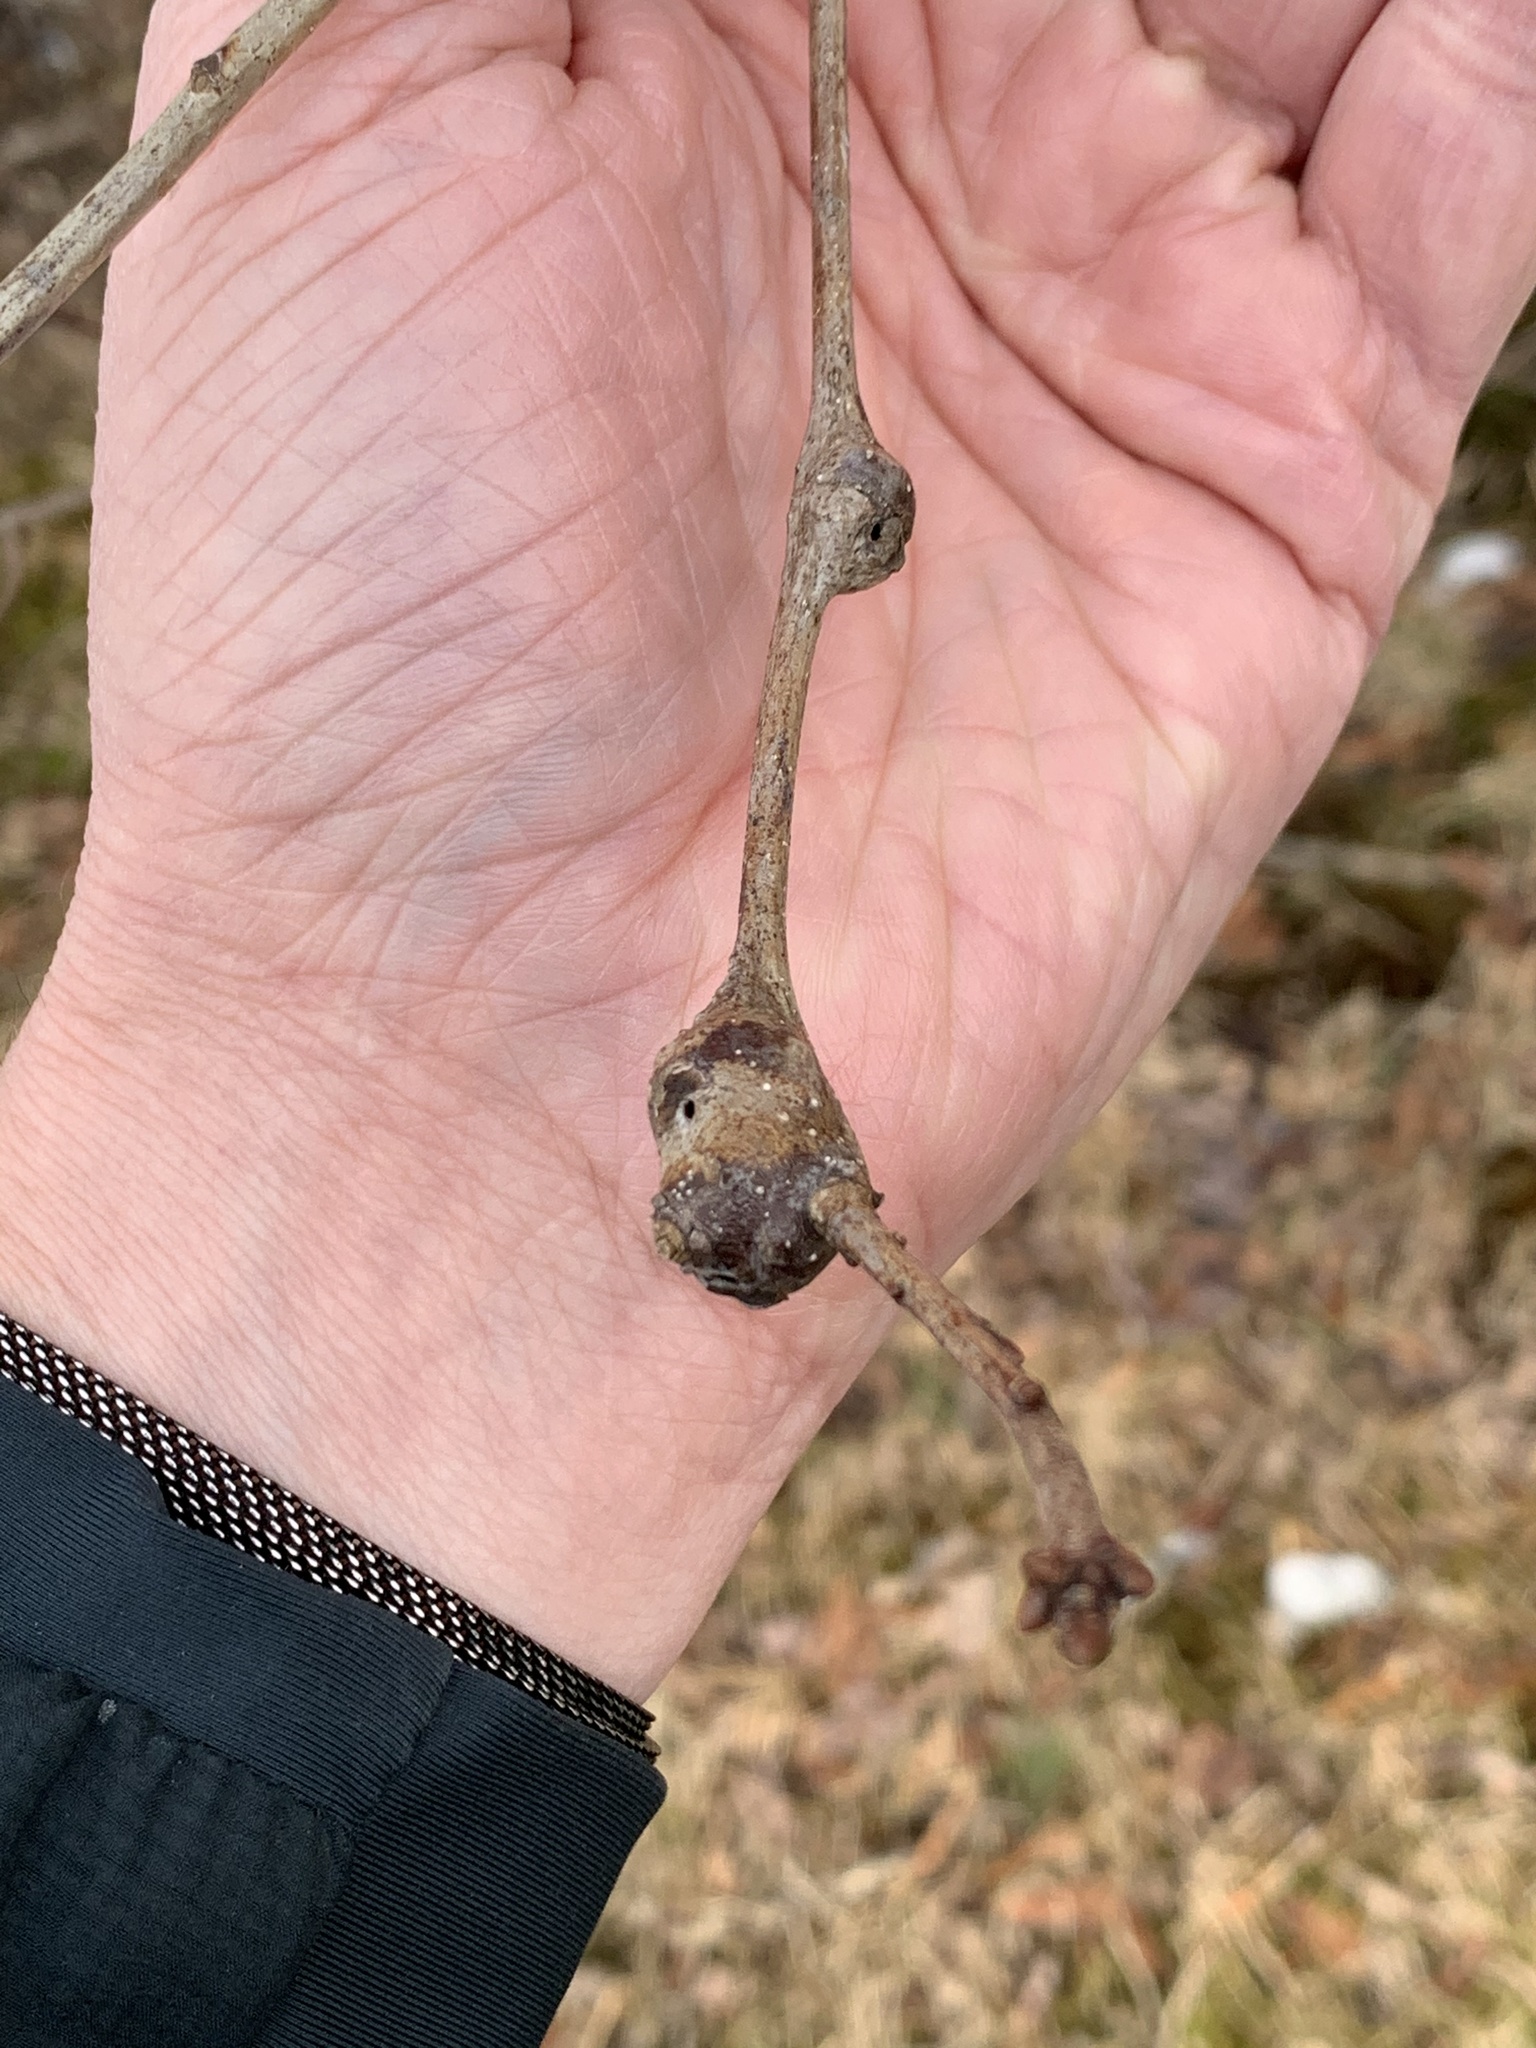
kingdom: Animalia
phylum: Arthropoda
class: Insecta
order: Hymenoptera
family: Cynipidae
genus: Callirhytis
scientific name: Callirhytis clavula
